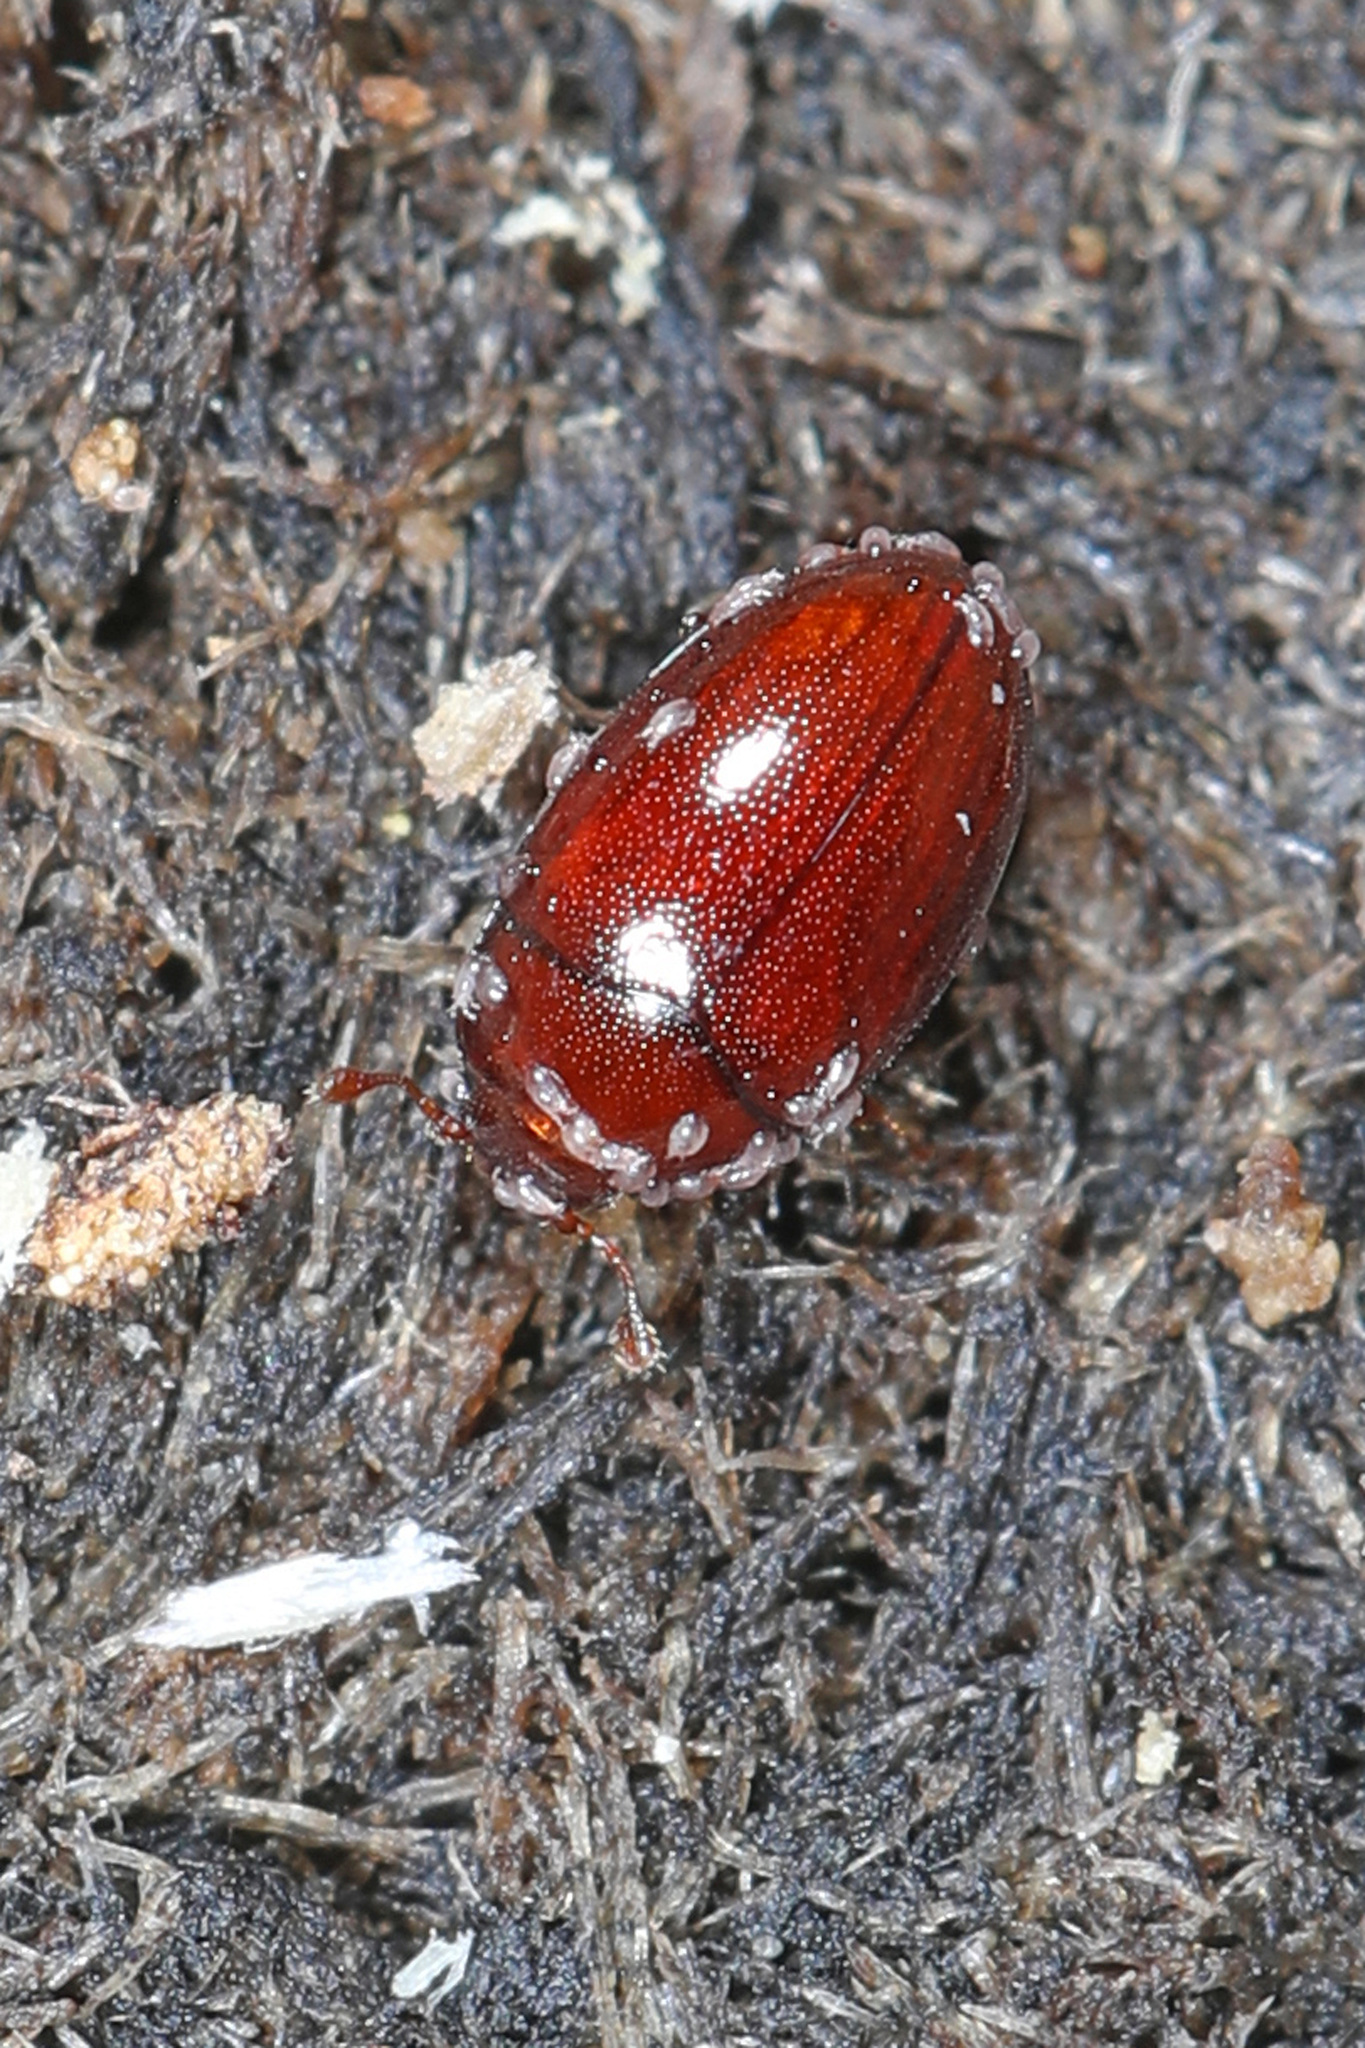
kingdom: Animalia
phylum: Arthropoda
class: Insecta
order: Coleoptera
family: Euxestidae
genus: Hypodacne
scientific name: Hypodacne punctata
